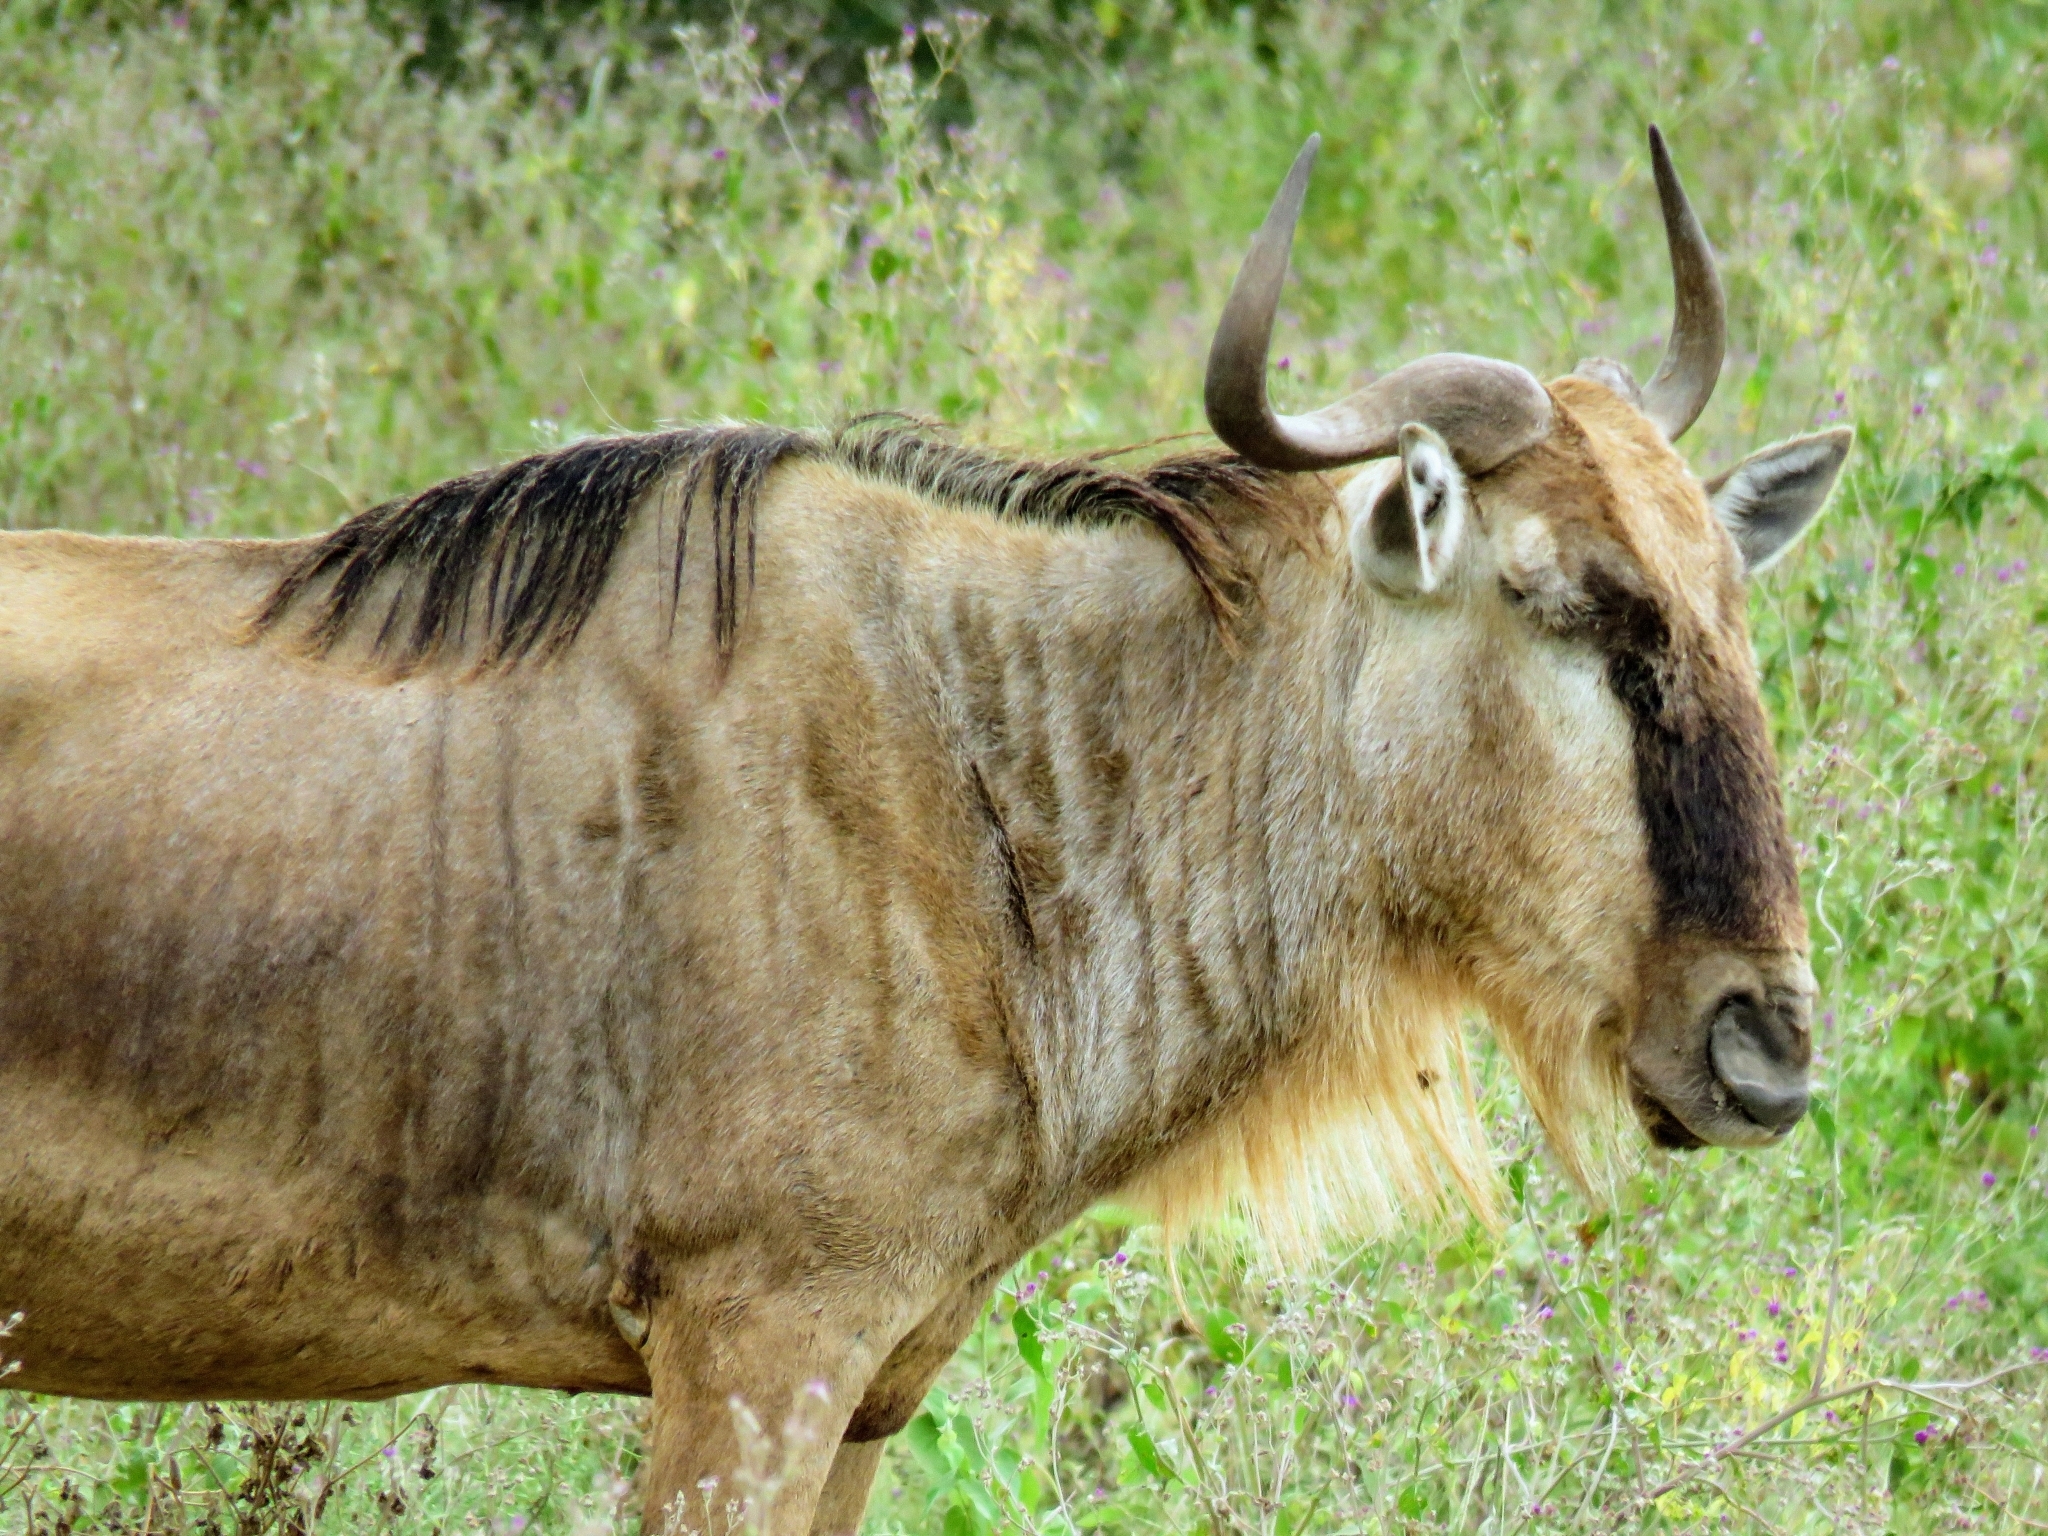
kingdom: Animalia
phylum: Chordata
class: Mammalia
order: Artiodactyla
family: Bovidae
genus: Connochaetes
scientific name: Connochaetes taurinus
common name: Blue wildebeest
